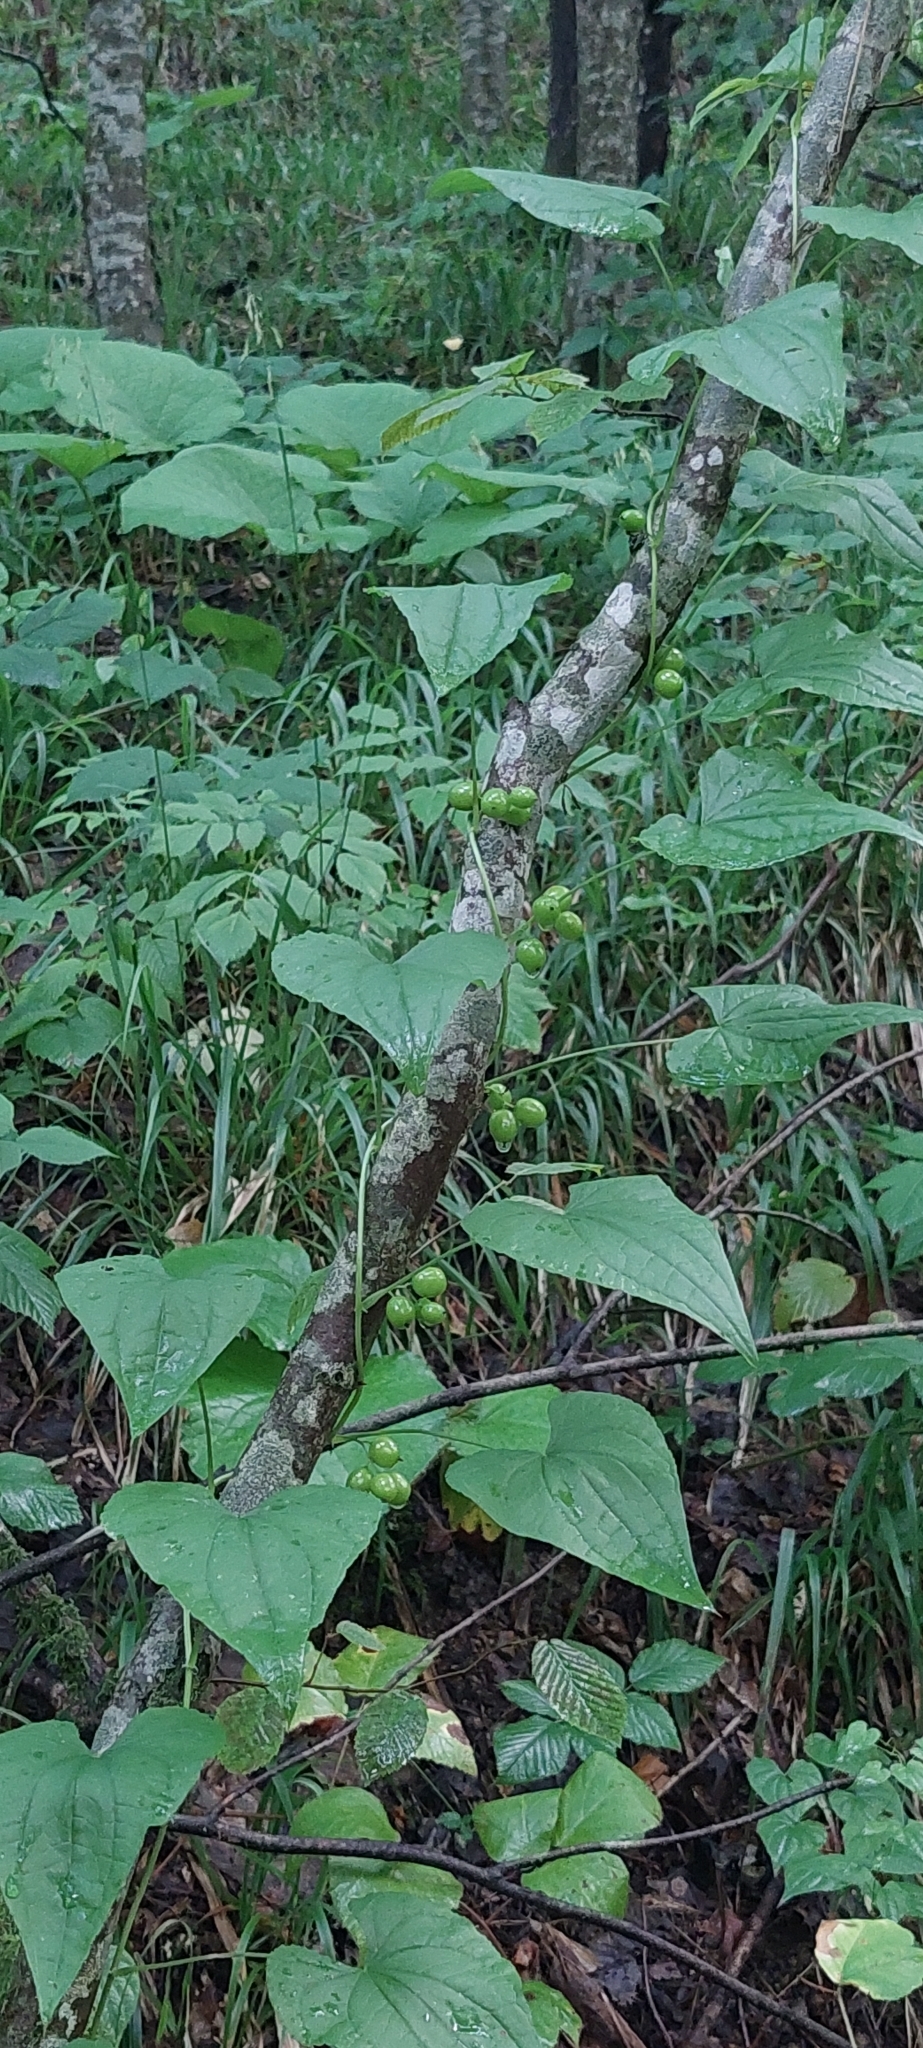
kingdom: Plantae
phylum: Tracheophyta
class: Liliopsida
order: Dioscoreales
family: Dioscoreaceae
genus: Dioscorea
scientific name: Dioscorea communis
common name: Black-bindweed
